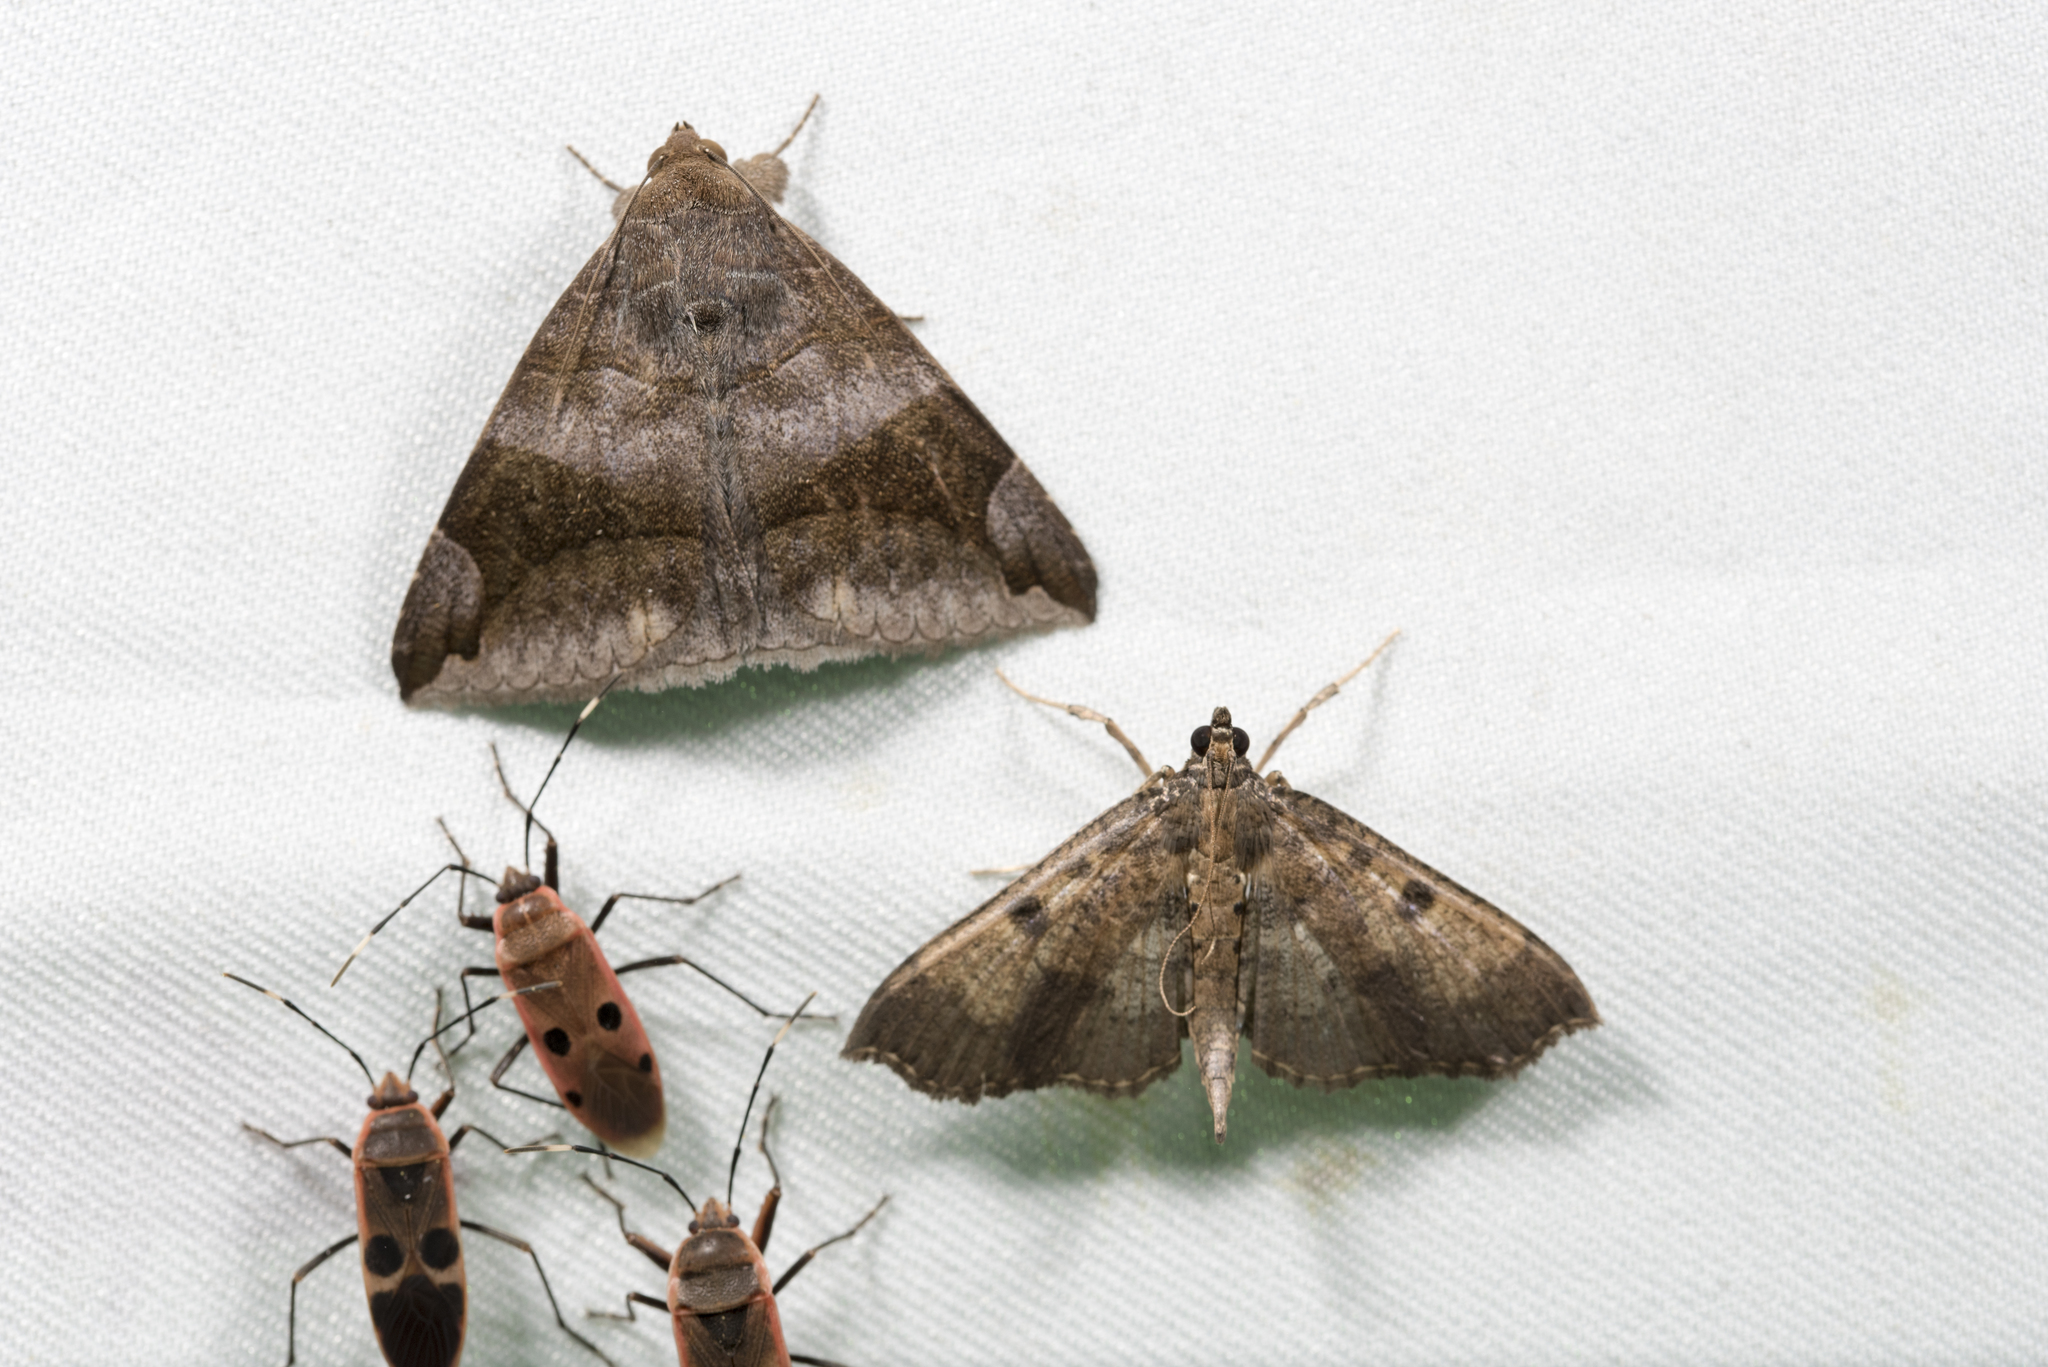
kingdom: Animalia
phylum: Arthropoda
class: Insecta
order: Lepidoptera
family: Crambidae
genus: Ceratarcha
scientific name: Ceratarcha umbrosa
